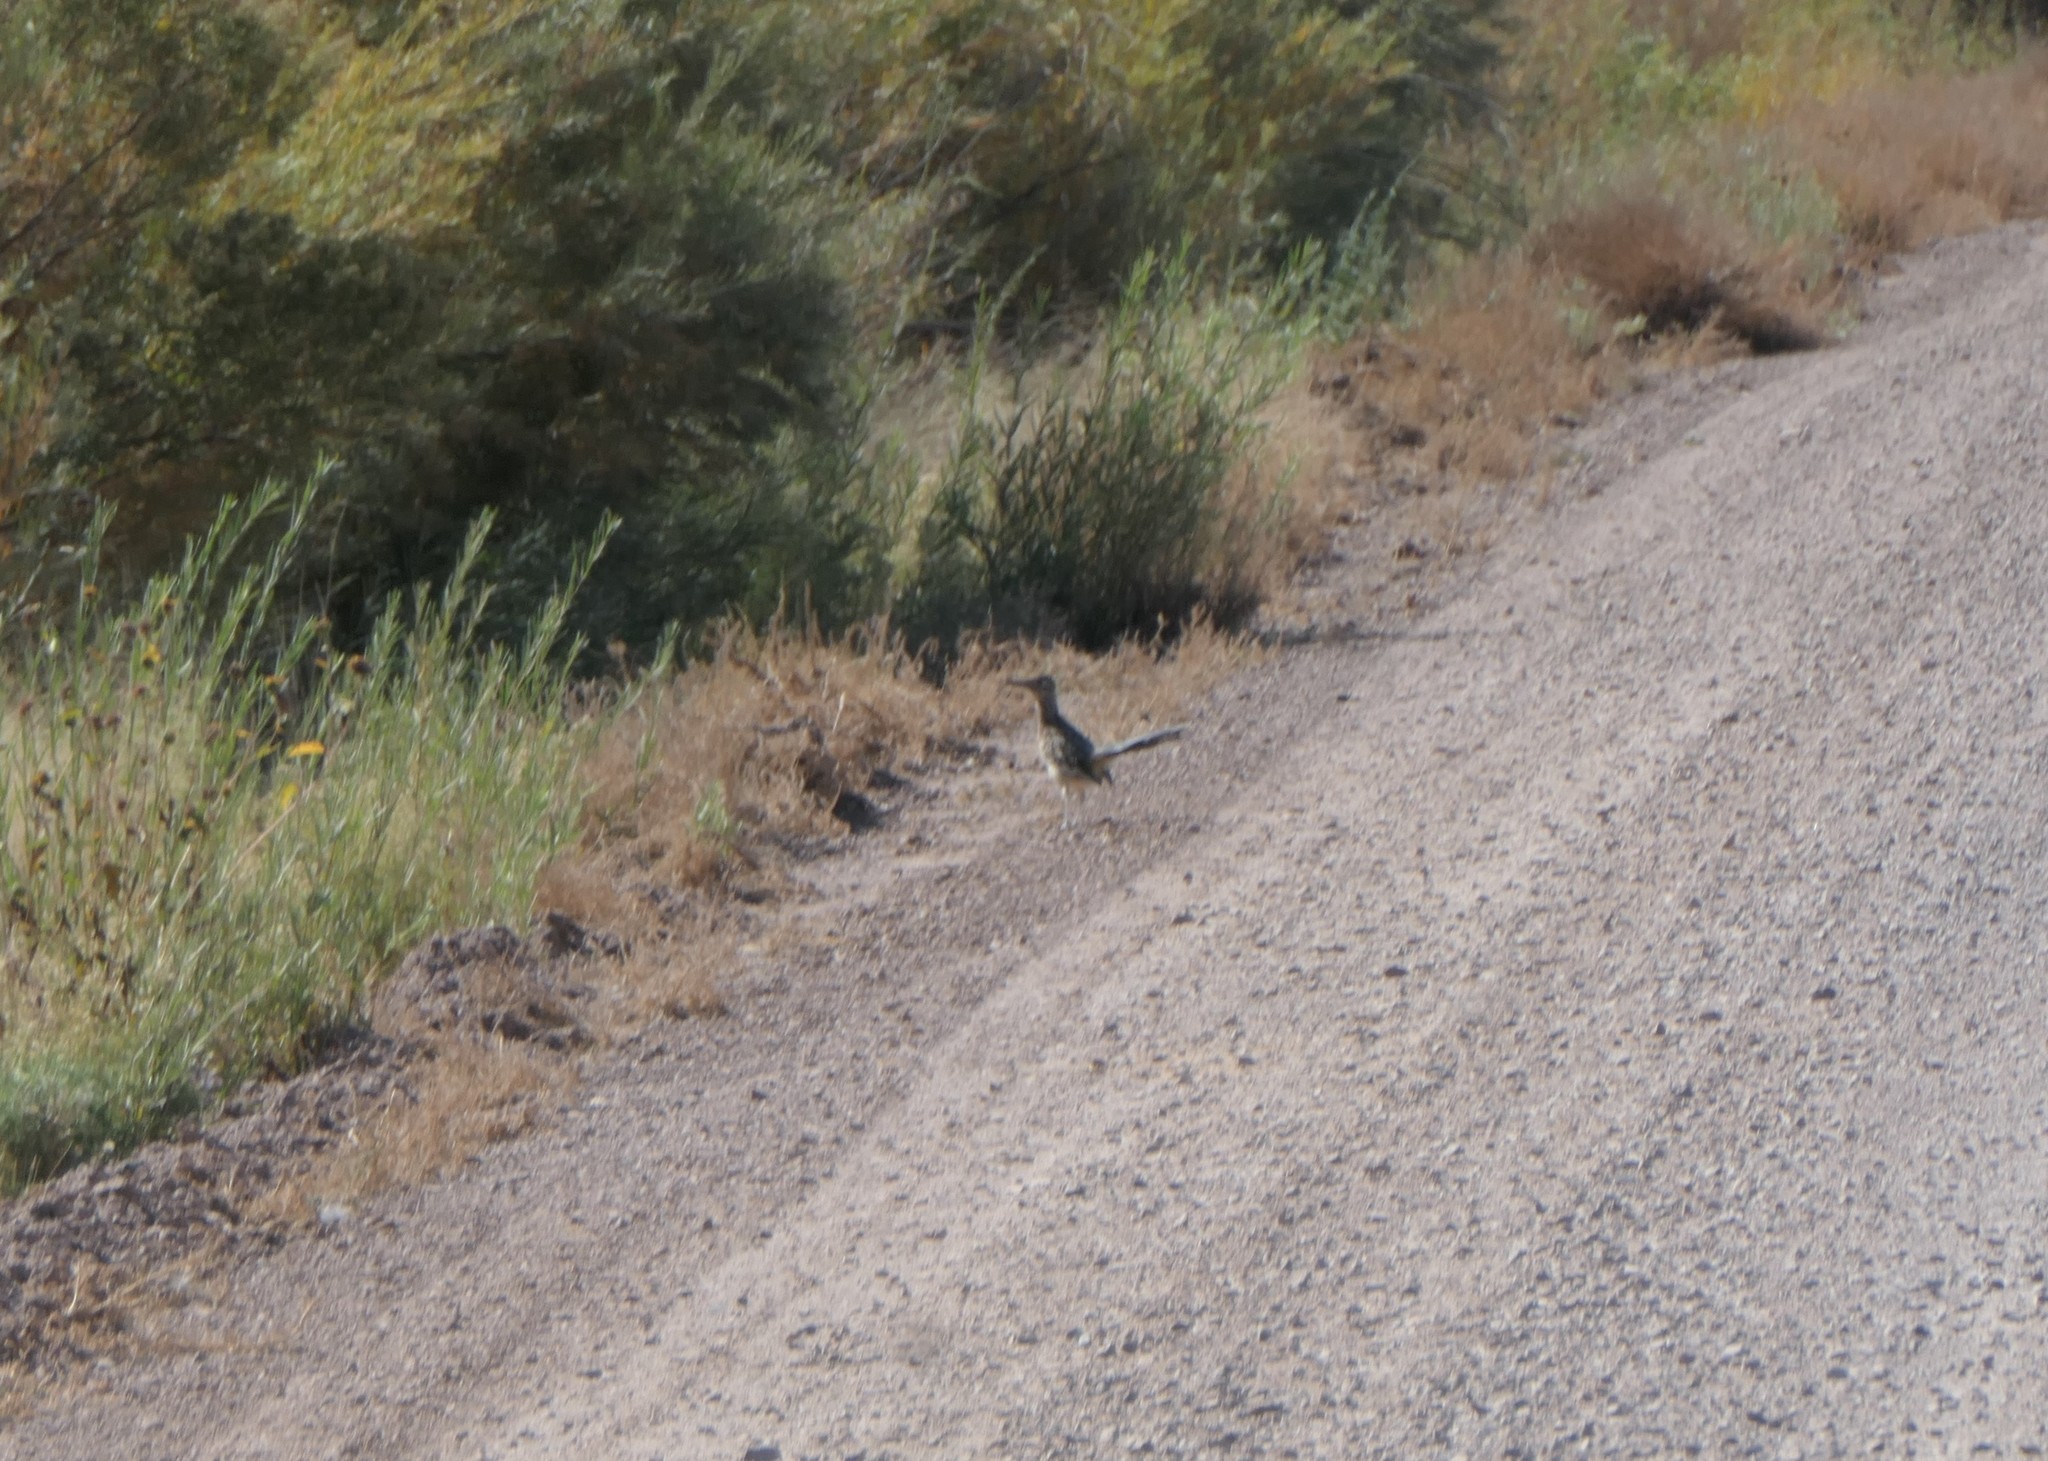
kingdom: Animalia
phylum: Chordata
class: Aves
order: Cuculiformes
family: Cuculidae
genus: Geococcyx
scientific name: Geococcyx californianus
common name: Greater roadrunner
